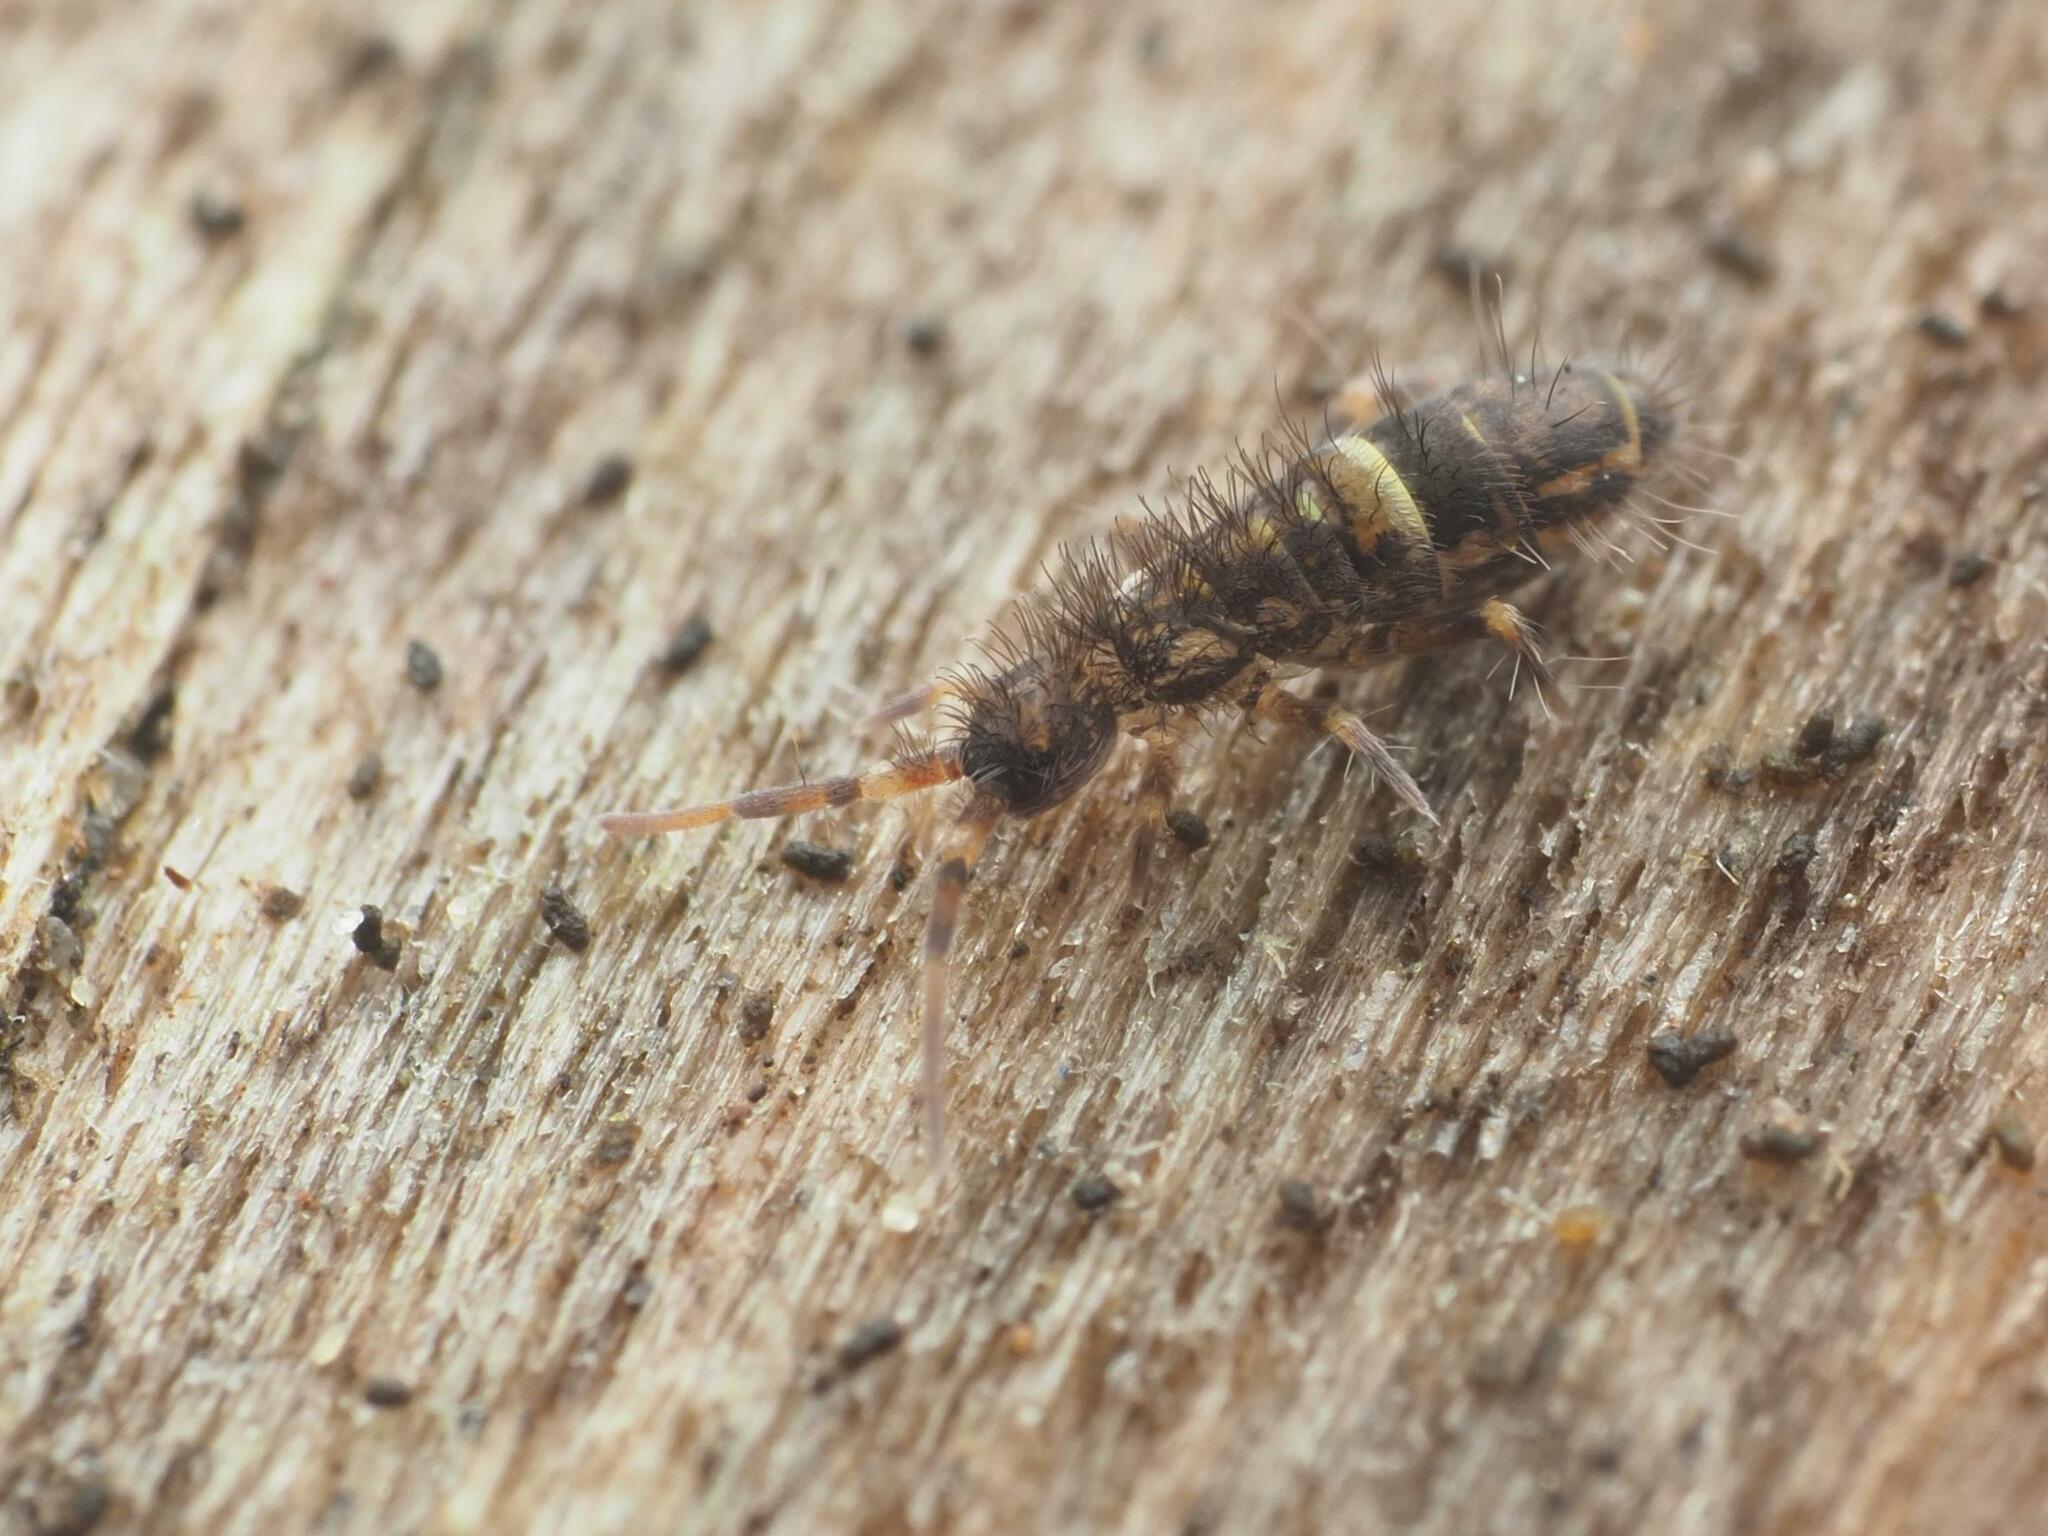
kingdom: Animalia
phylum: Arthropoda
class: Collembola
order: Entomobryomorpha
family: Orchesellidae
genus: Orchesella
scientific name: Orchesella cincta
